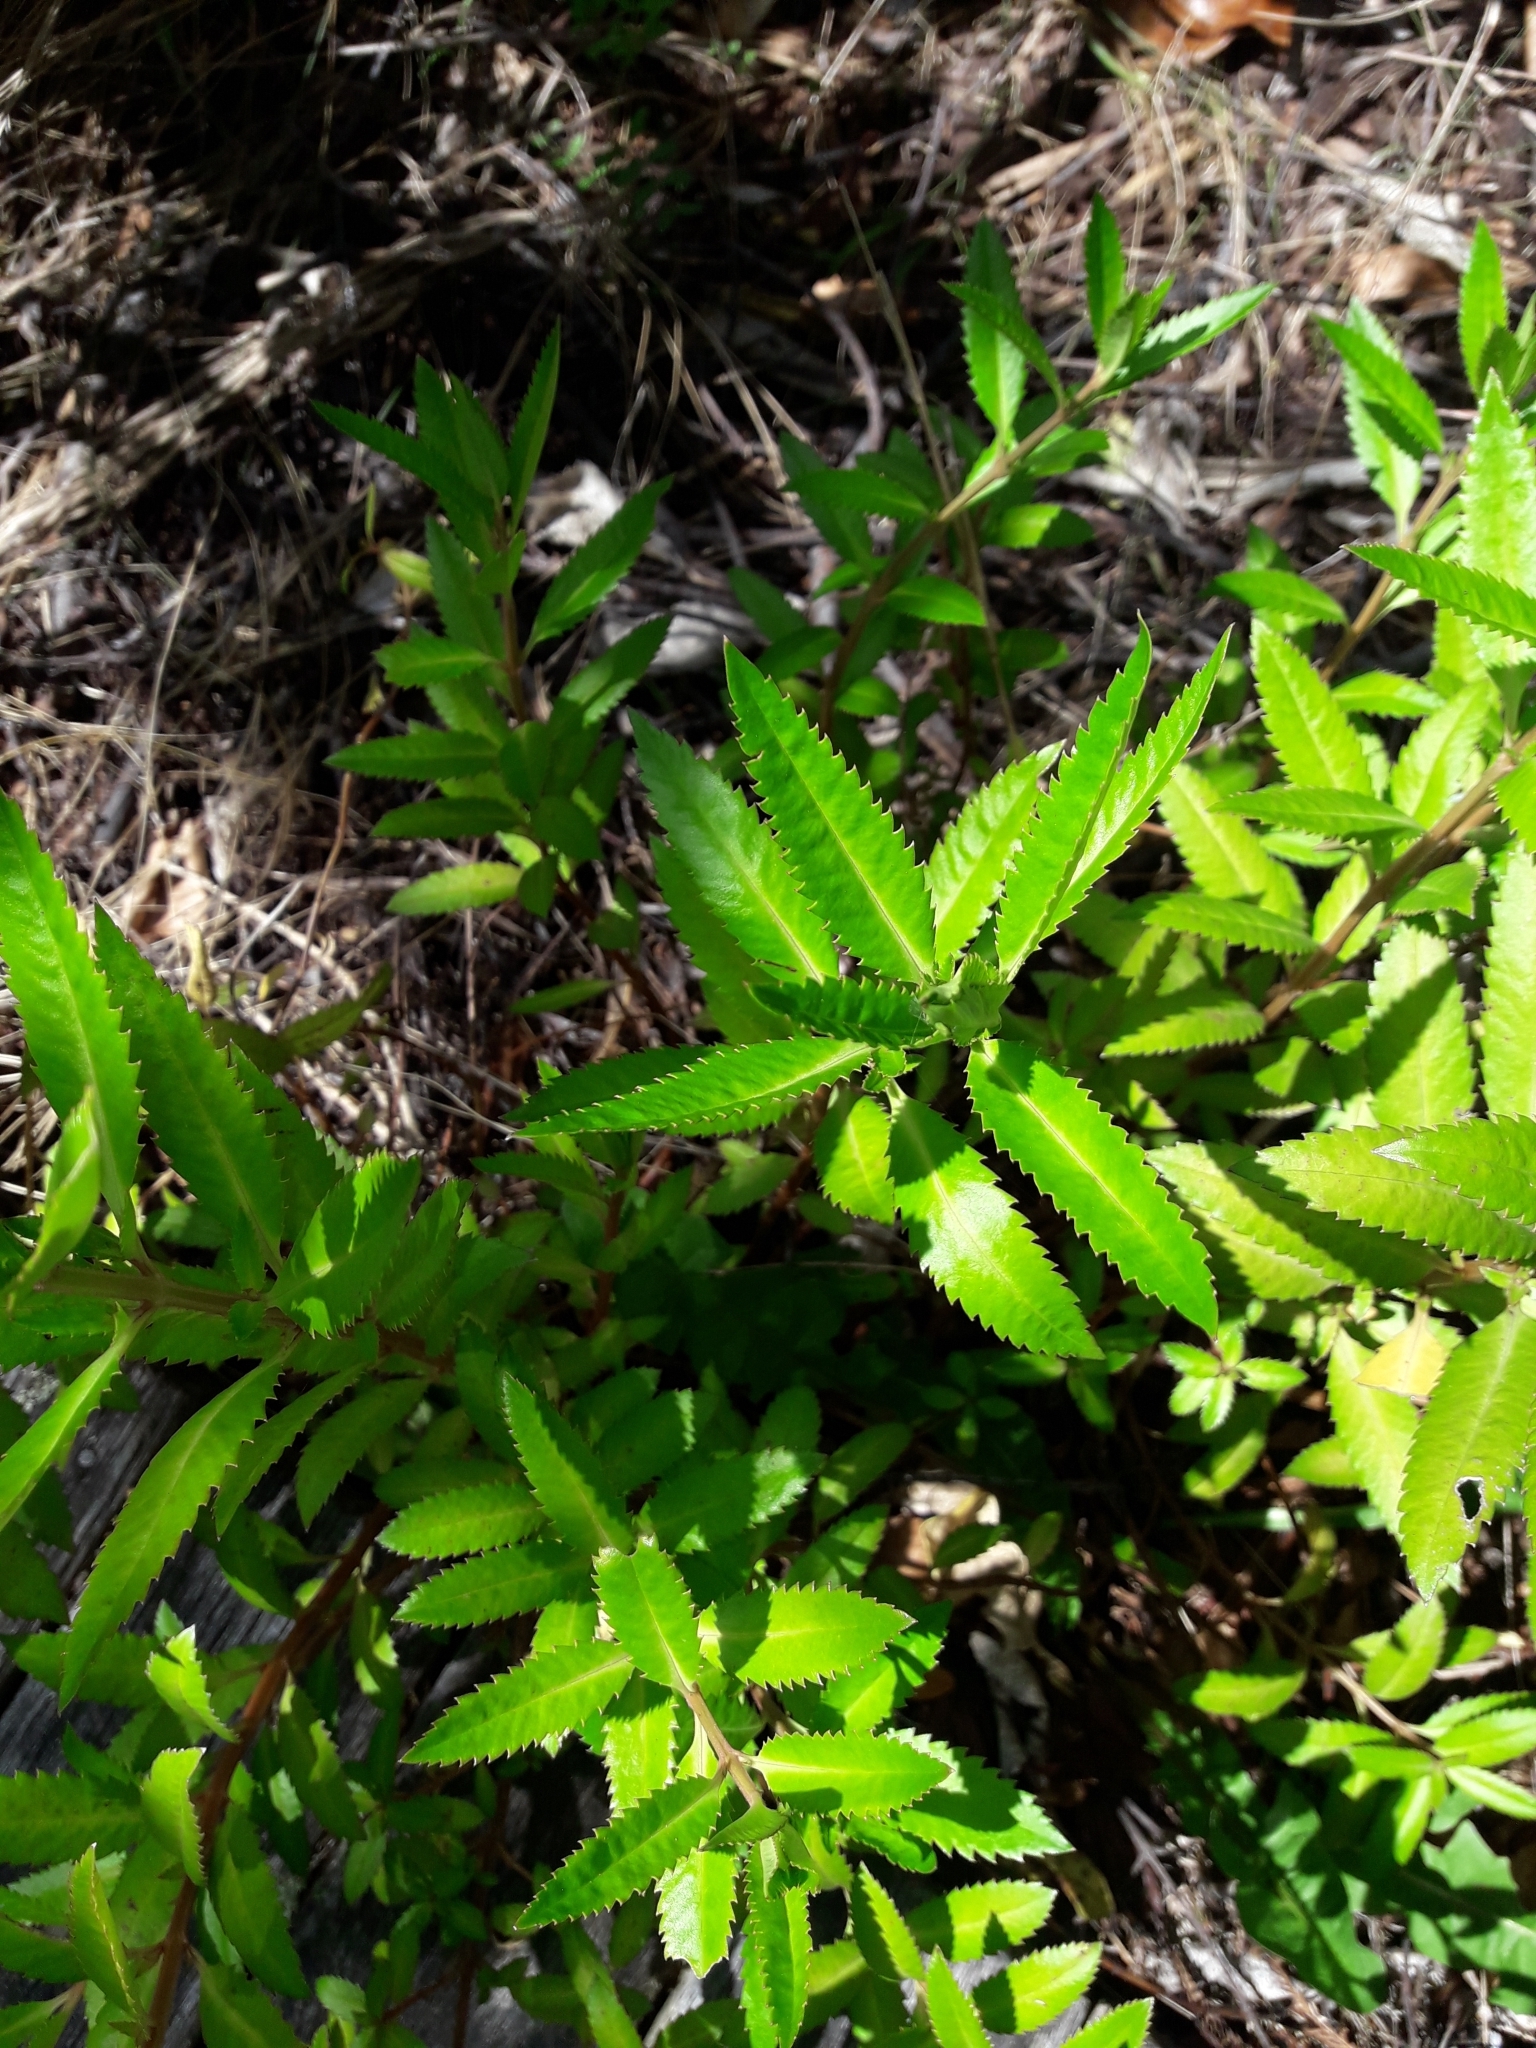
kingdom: Plantae
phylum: Tracheophyta
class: Magnoliopsida
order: Saxifragales
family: Haloragaceae
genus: Haloragis
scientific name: Haloragis erecta
